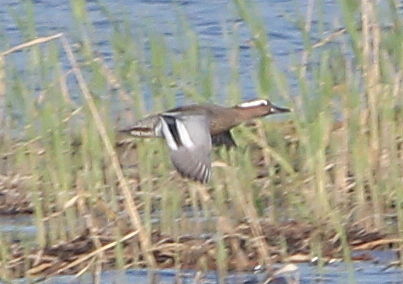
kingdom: Animalia
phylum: Chordata
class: Aves
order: Anseriformes
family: Anatidae
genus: Spatula
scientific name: Spatula querquedula
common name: Garganey
